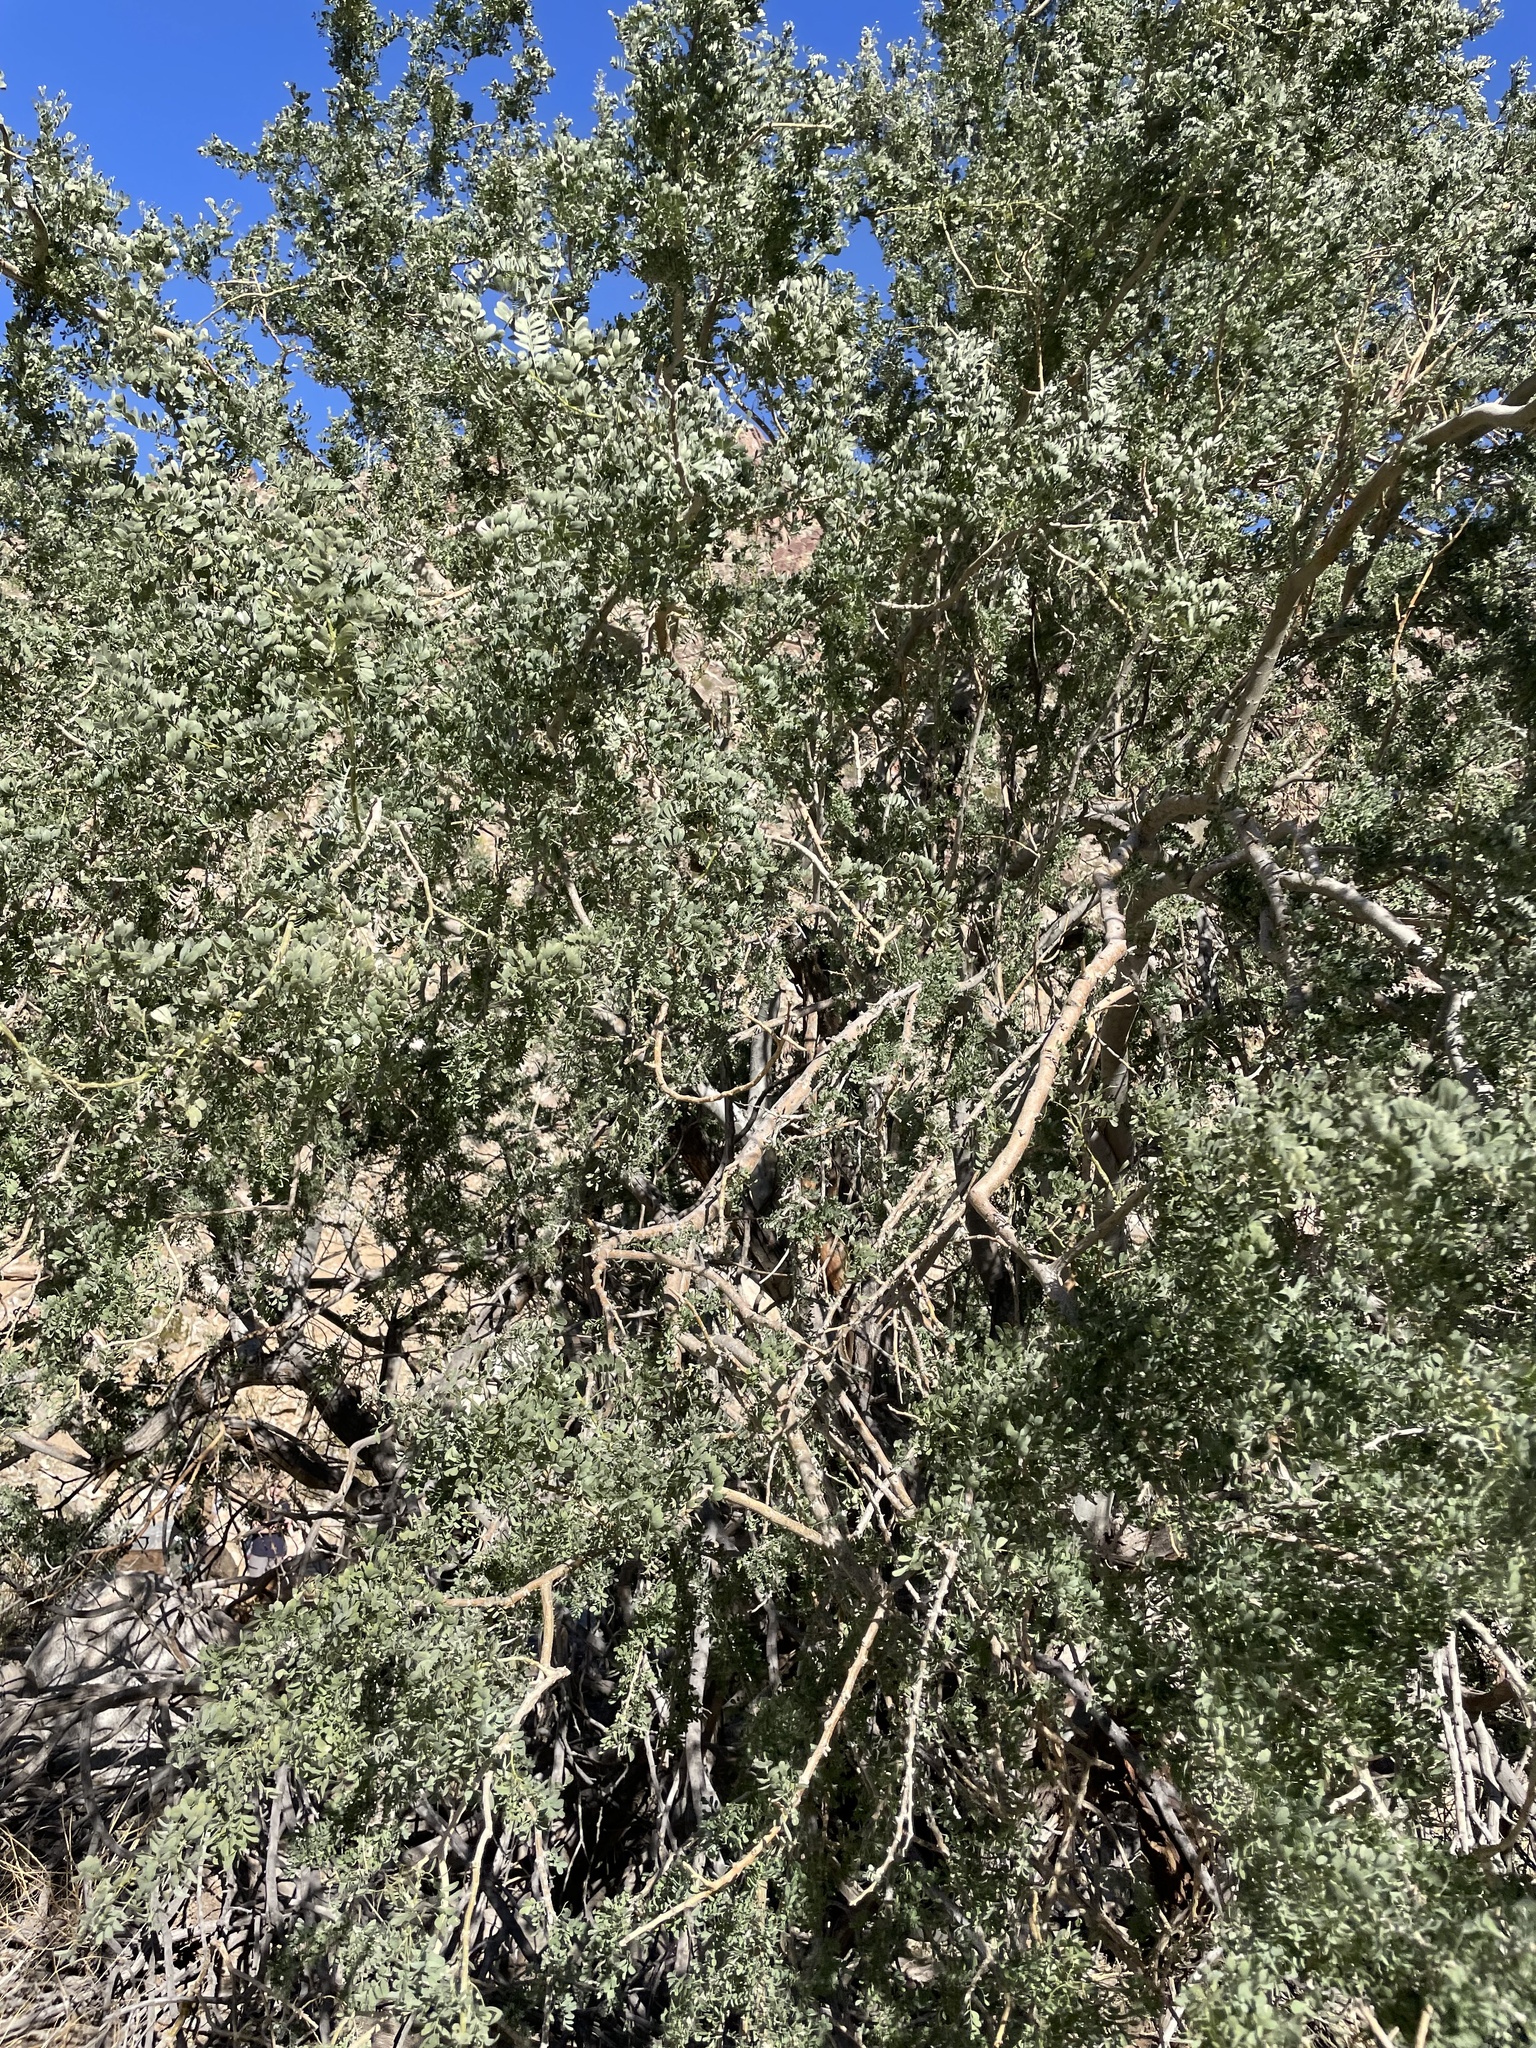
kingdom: Plantae
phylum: Tracheophyta
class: Magnoliopsida
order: Fabales
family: Fabaceae
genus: Olneya
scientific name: Olneya tesota
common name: Desert ironwood
